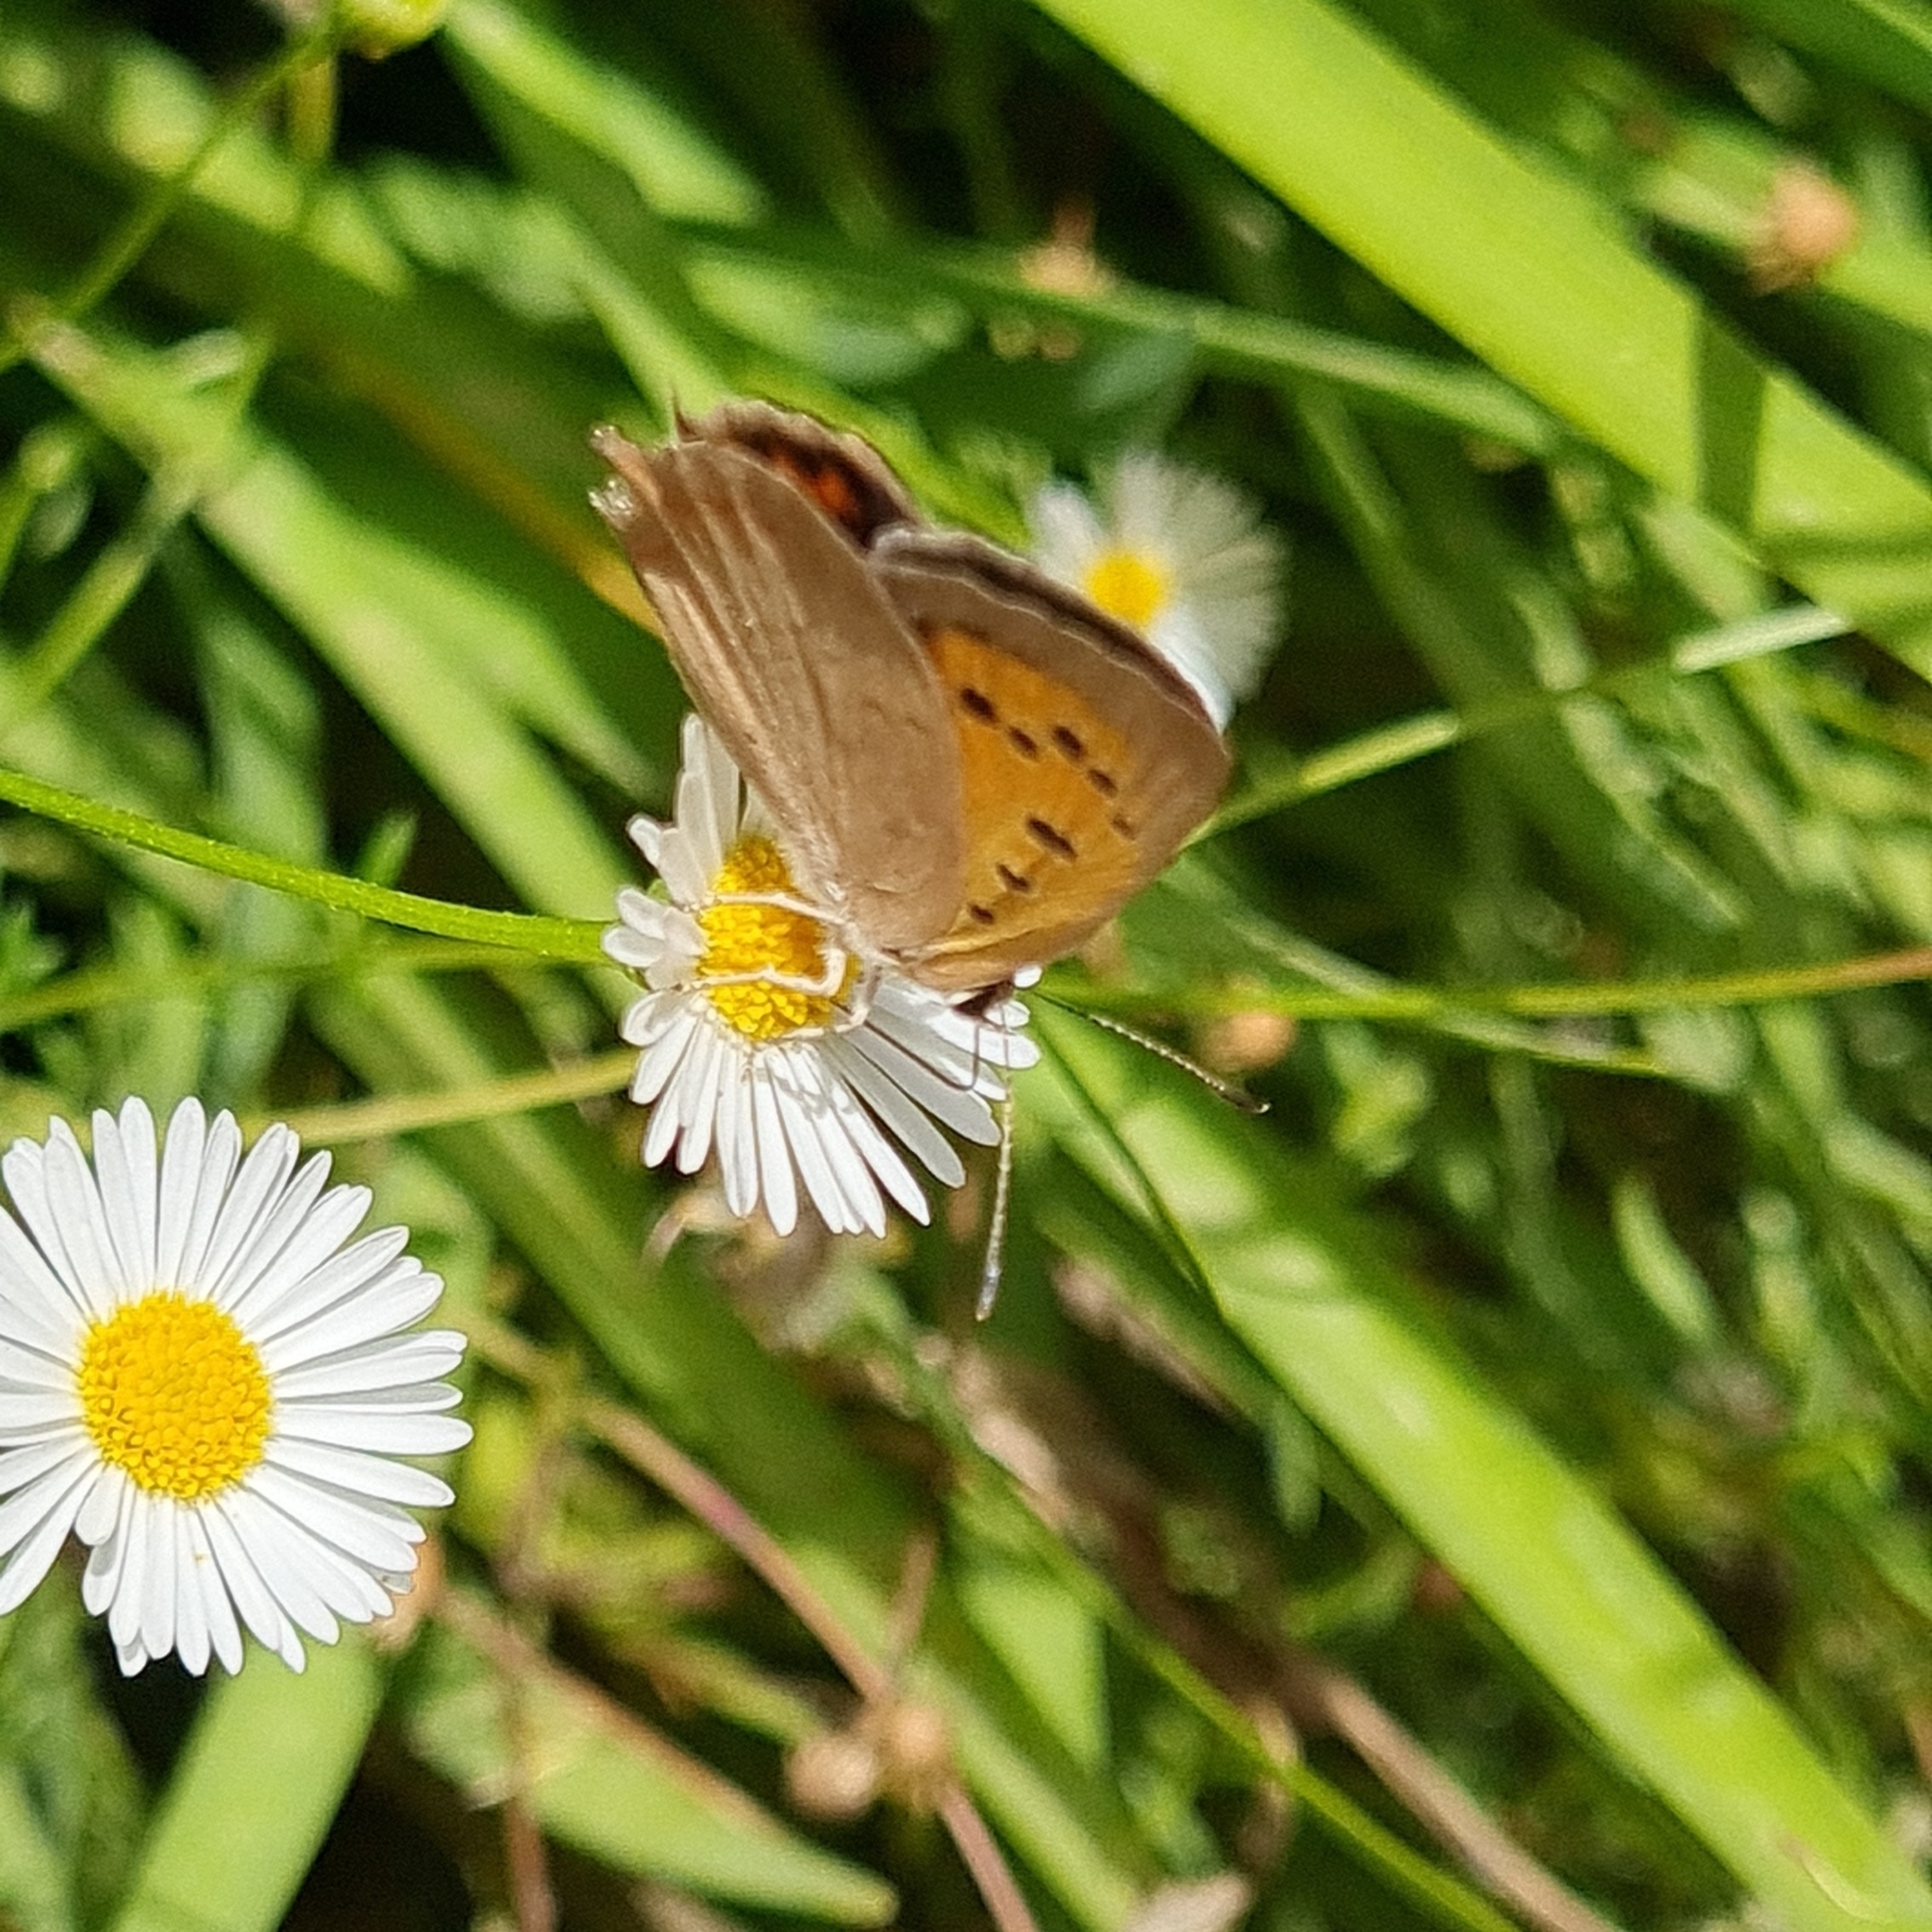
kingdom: Animalia
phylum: Arthropoda
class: Insecta
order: Lepidoptera
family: Lycaenidae
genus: Lycaena
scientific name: Lycaena phlaeas
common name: Small copper
